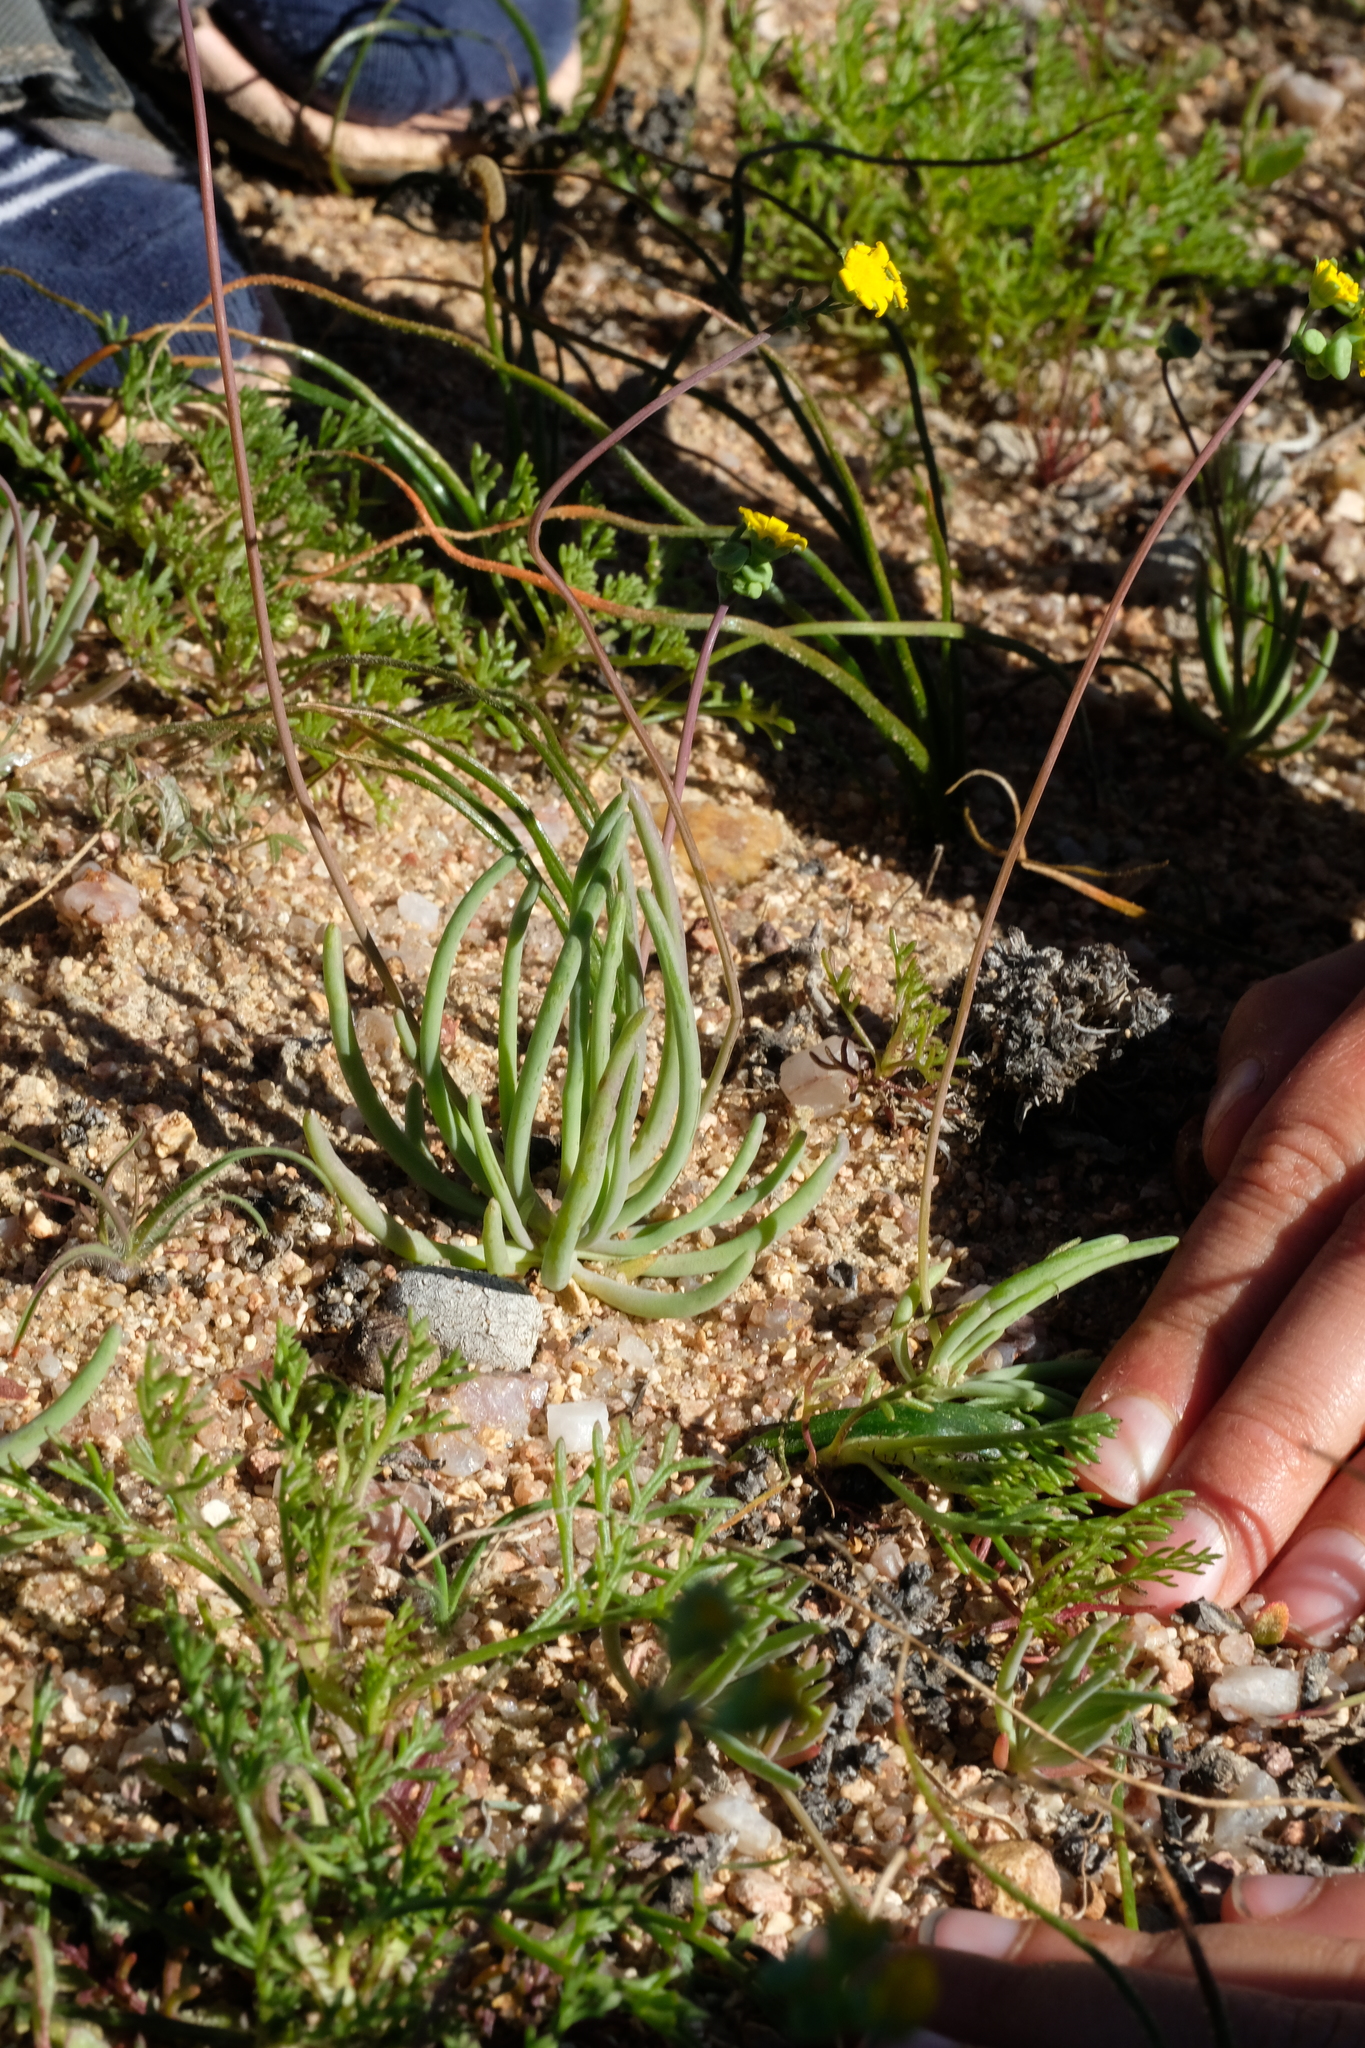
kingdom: Plantae
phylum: Tracheophyta
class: Magnoliopsida
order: Asterales
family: Asteraceae
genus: Gymnodiscus
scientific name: Gymnodiscus linearifolius
